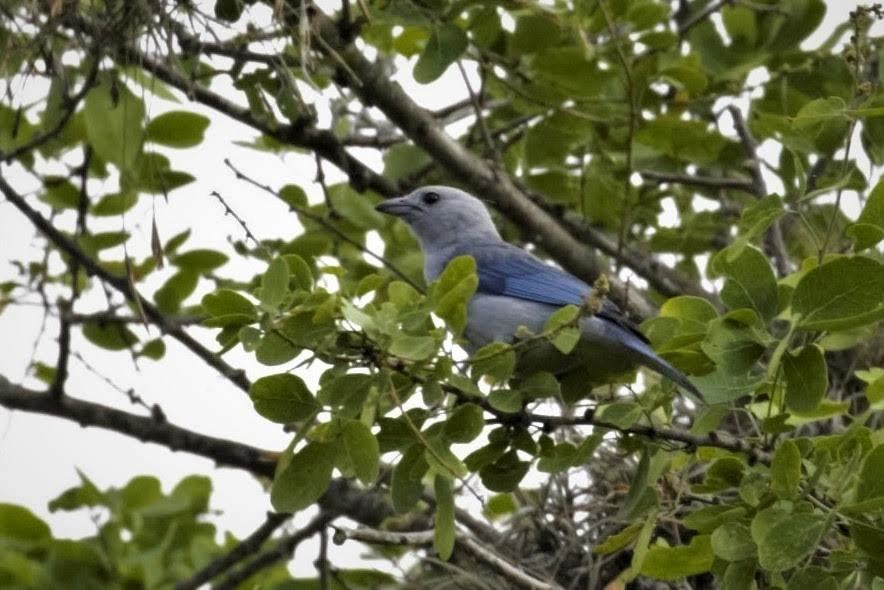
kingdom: Animalia
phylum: Chordata
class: Aves
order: Passeriformes
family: Thraupidae
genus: Thraupis
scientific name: Thraupis episcopus
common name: Blue-grey tanager
